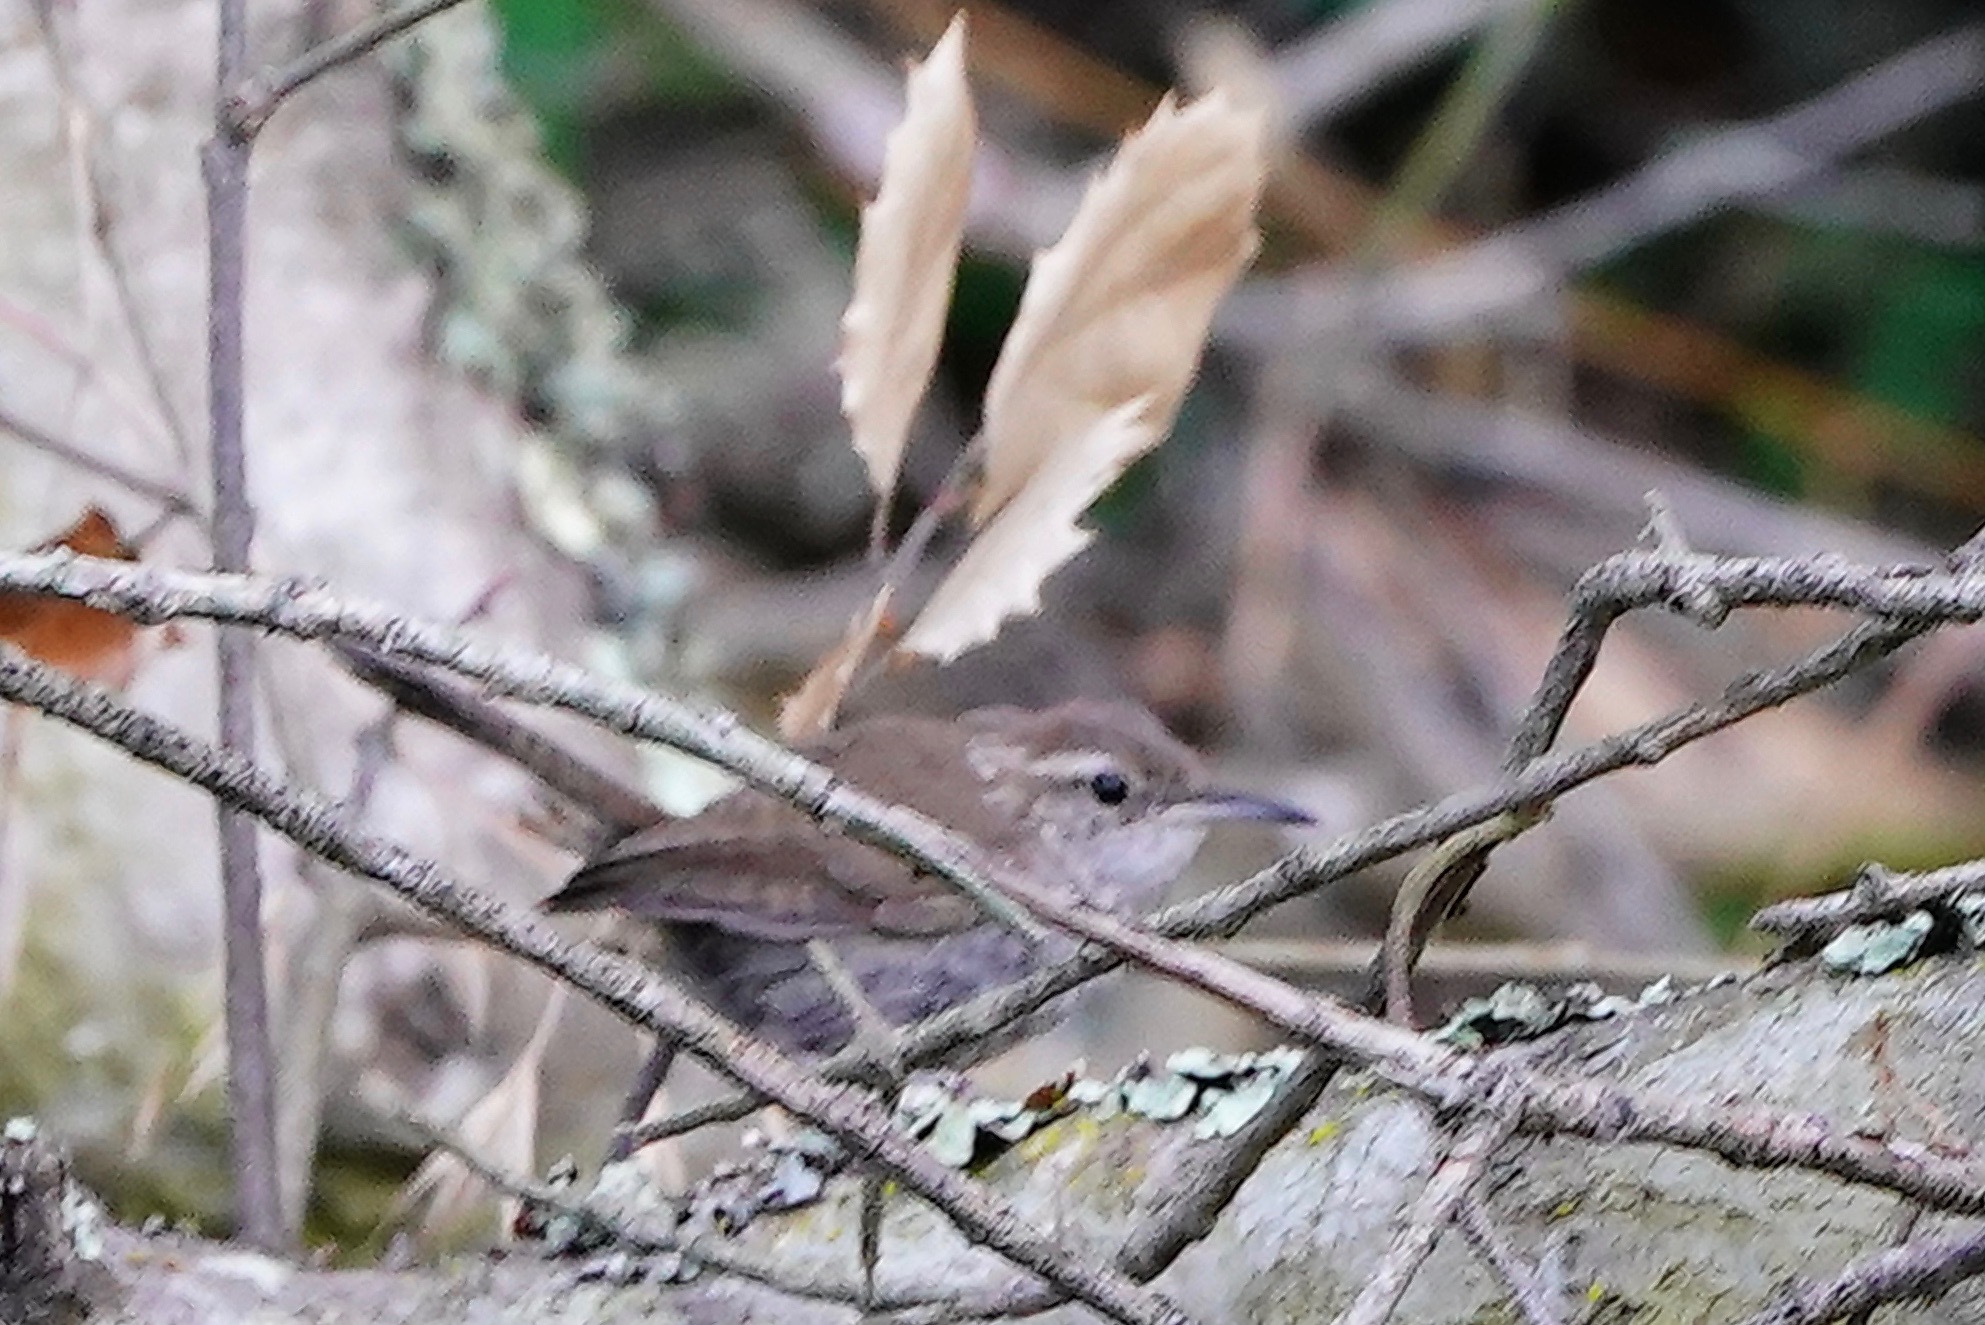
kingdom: Animalia
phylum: Chordata
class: Aves
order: Passeriformes
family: Troglodytidae
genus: Thryomanes
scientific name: Thryomanes bewickii
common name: Bewick's wren
